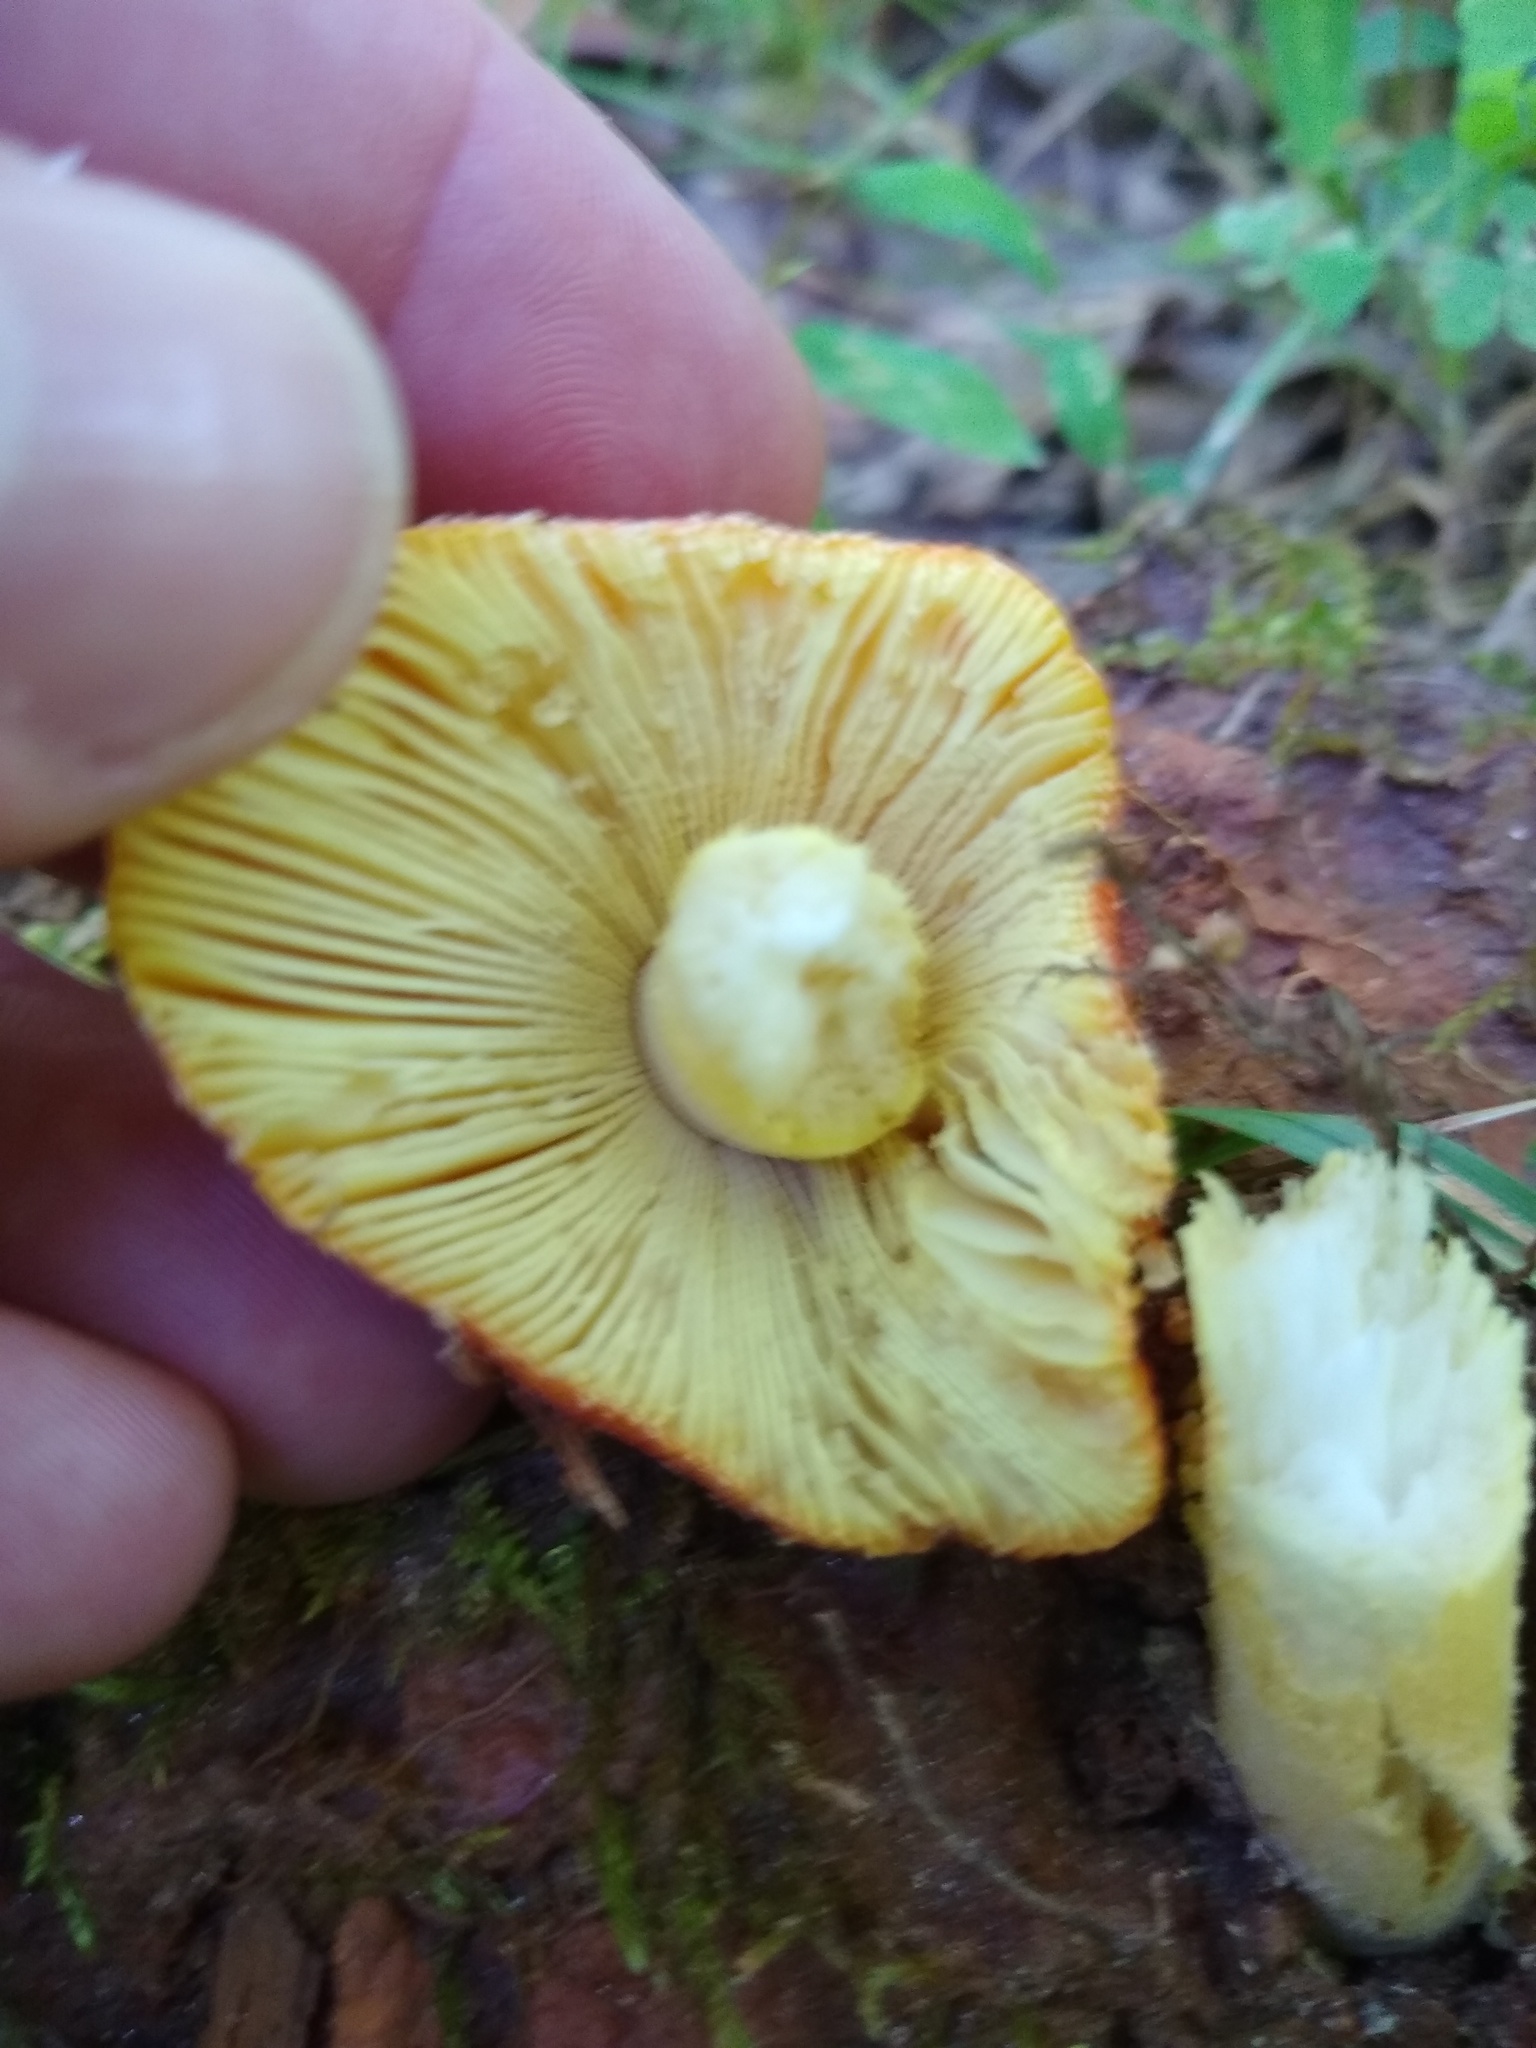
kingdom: Fungi
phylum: Basidiomycota
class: Agaricomycetes
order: Agaricales
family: Amanitaceae
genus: Amanita
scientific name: Amanita parcivolvata
